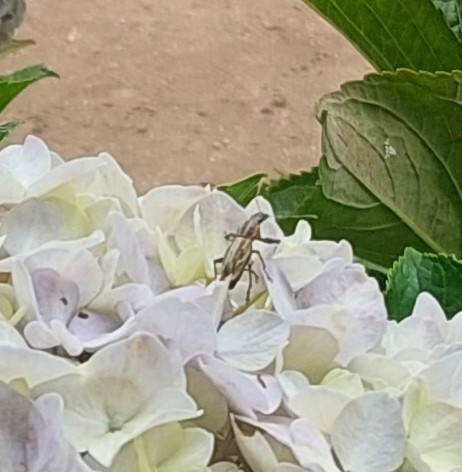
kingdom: Animalia
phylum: Arthropoda
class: Insecta
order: Coleoptera
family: Curculionidae
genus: Naupactus
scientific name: Naupactus xanthographus
